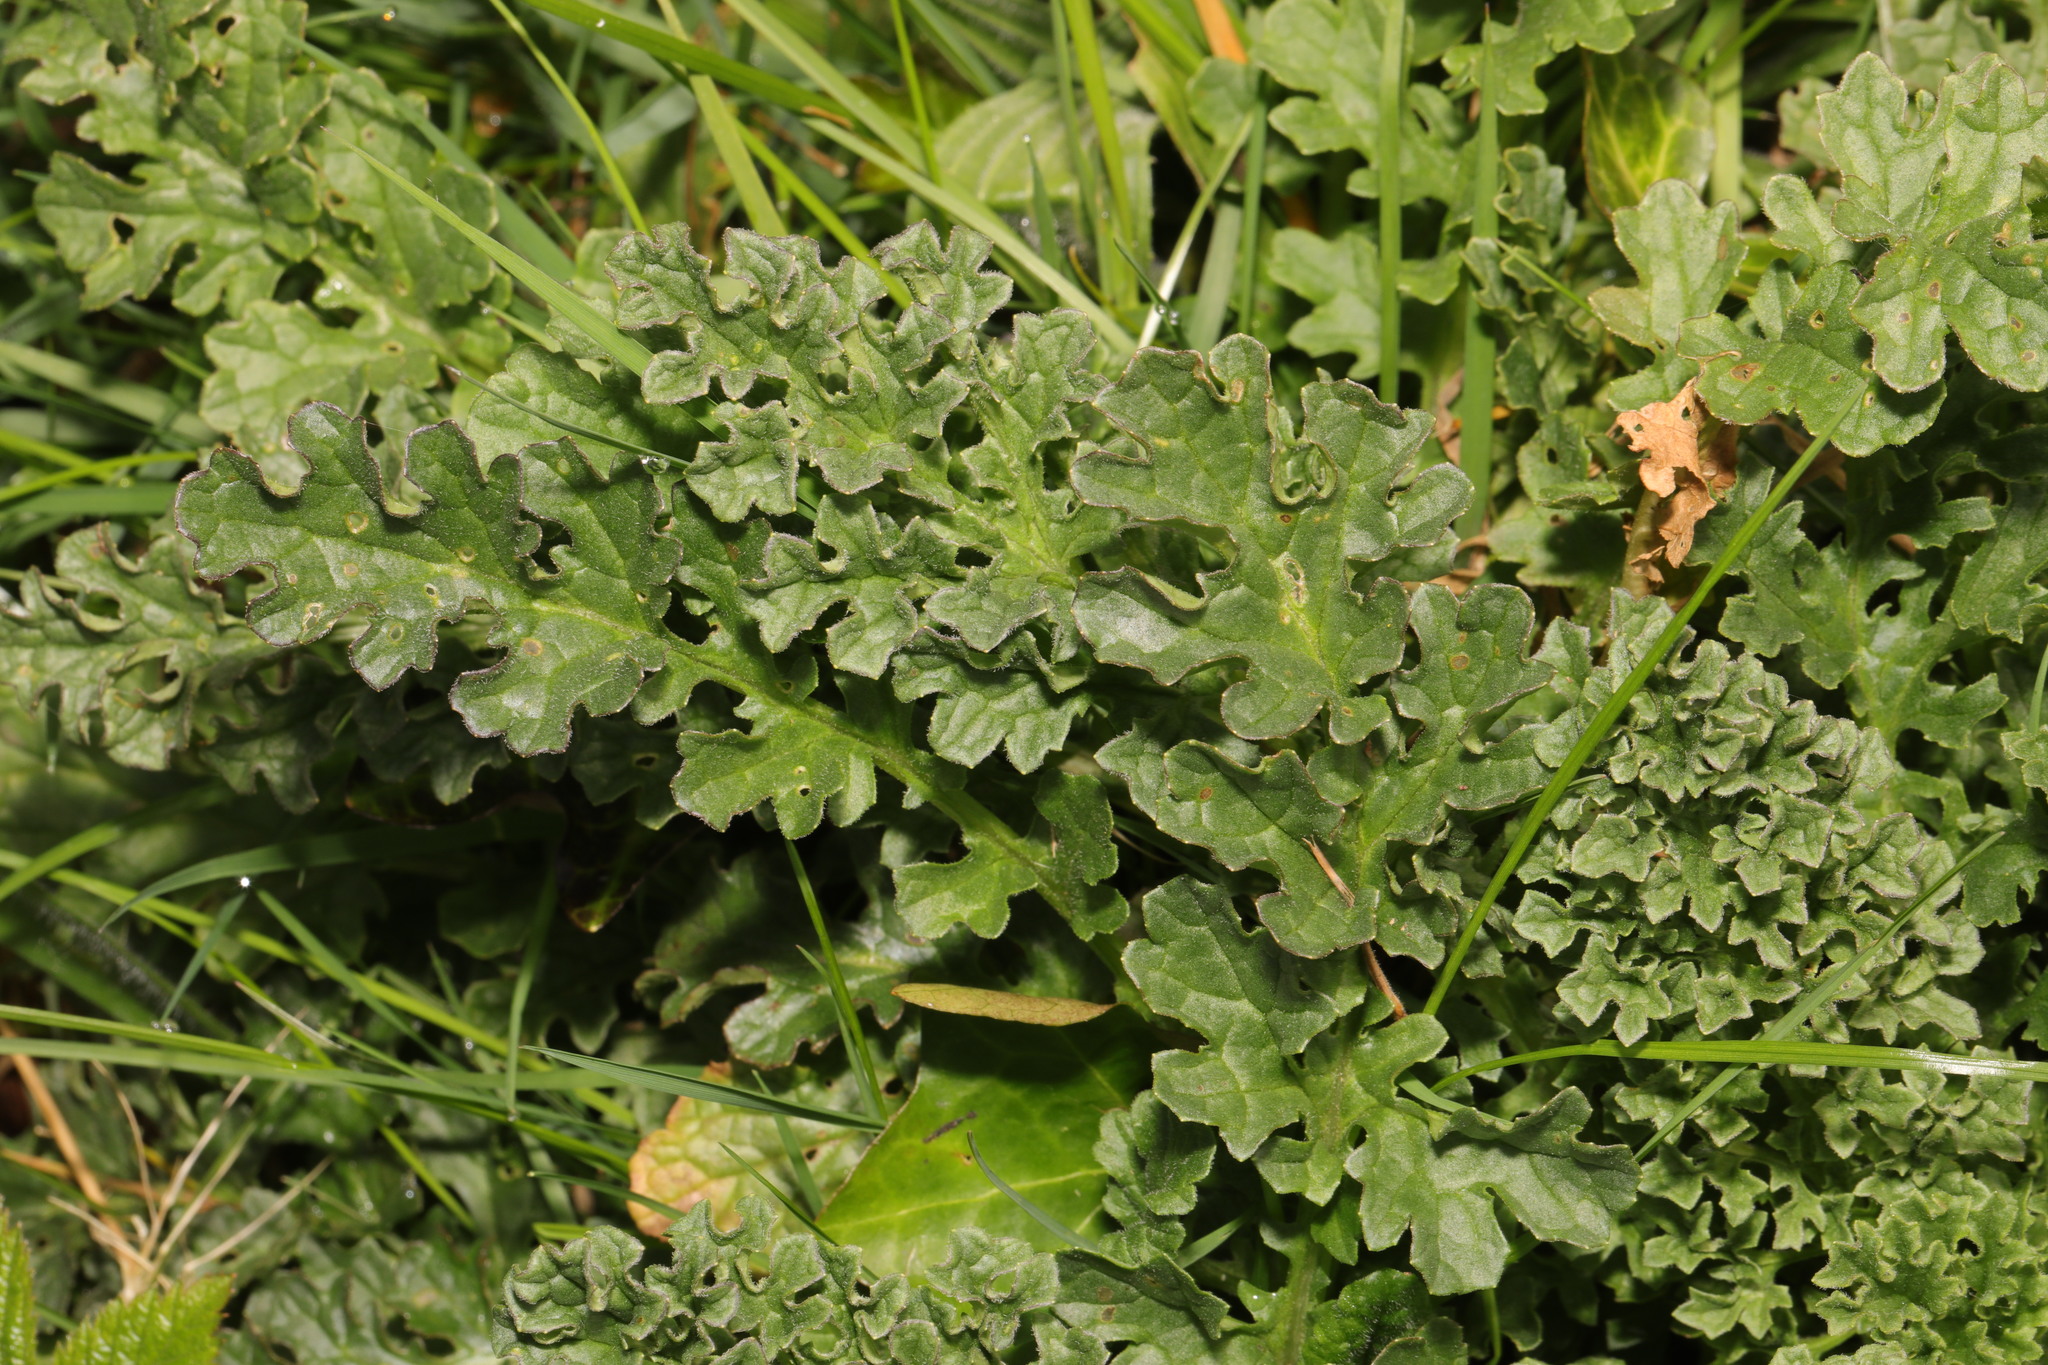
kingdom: Plantae
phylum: Tracheophyta
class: Magnoliopsida
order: Asterales
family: Asteraceae
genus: Jacobaea
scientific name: Jacobaea vulgaris
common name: Stinking willie
